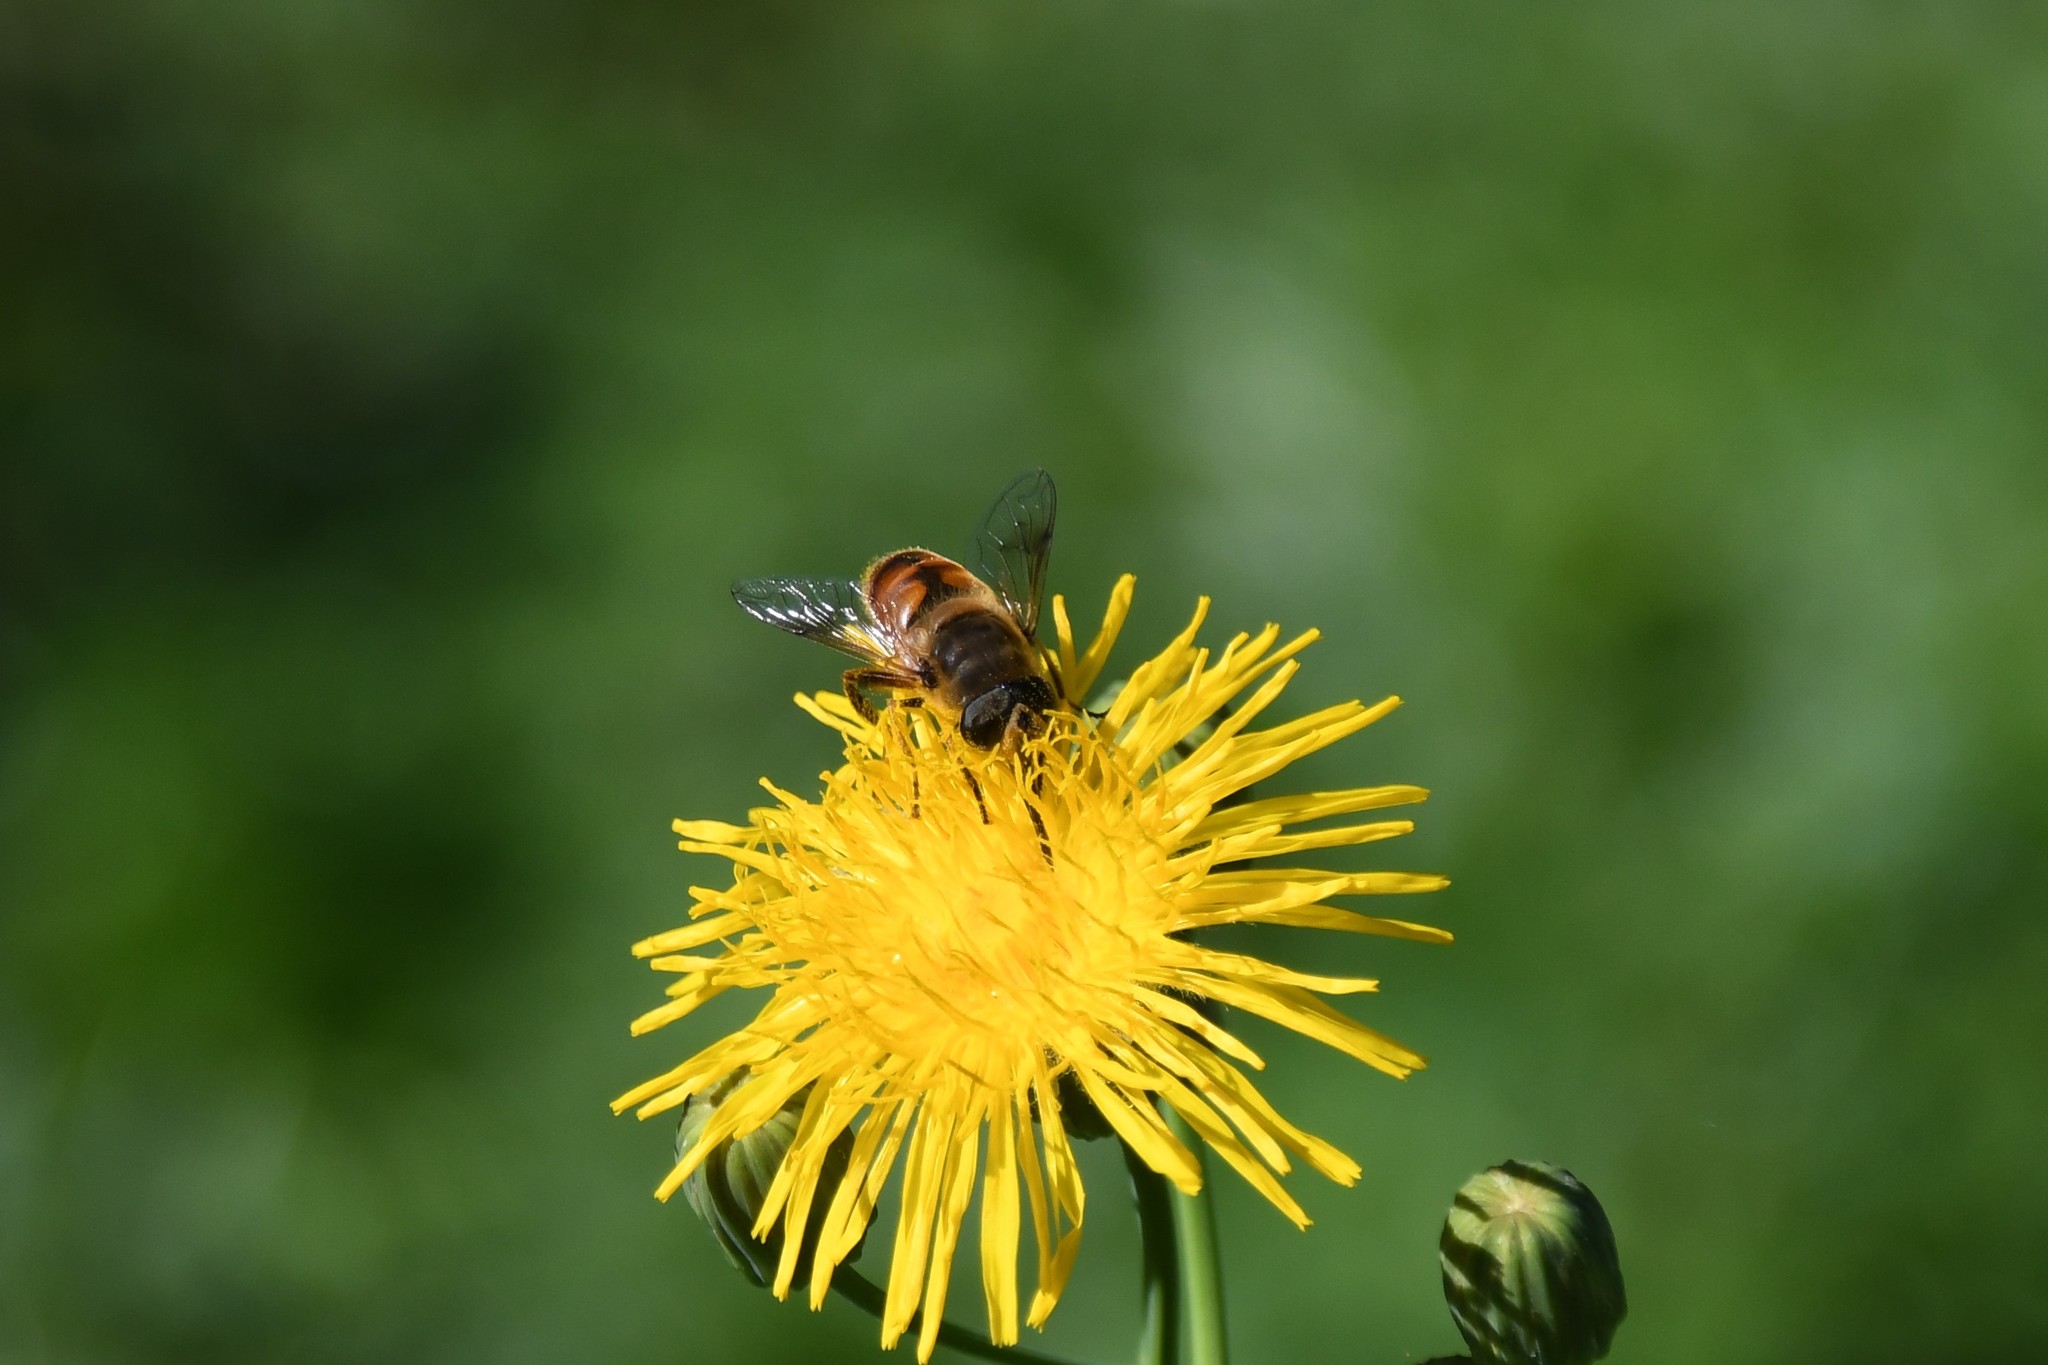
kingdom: Animalia
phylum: Arthropoda
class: Insecta
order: Diptera
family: Syrphidae
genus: Eristalis
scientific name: Eristalis tenax
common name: Drone fly
